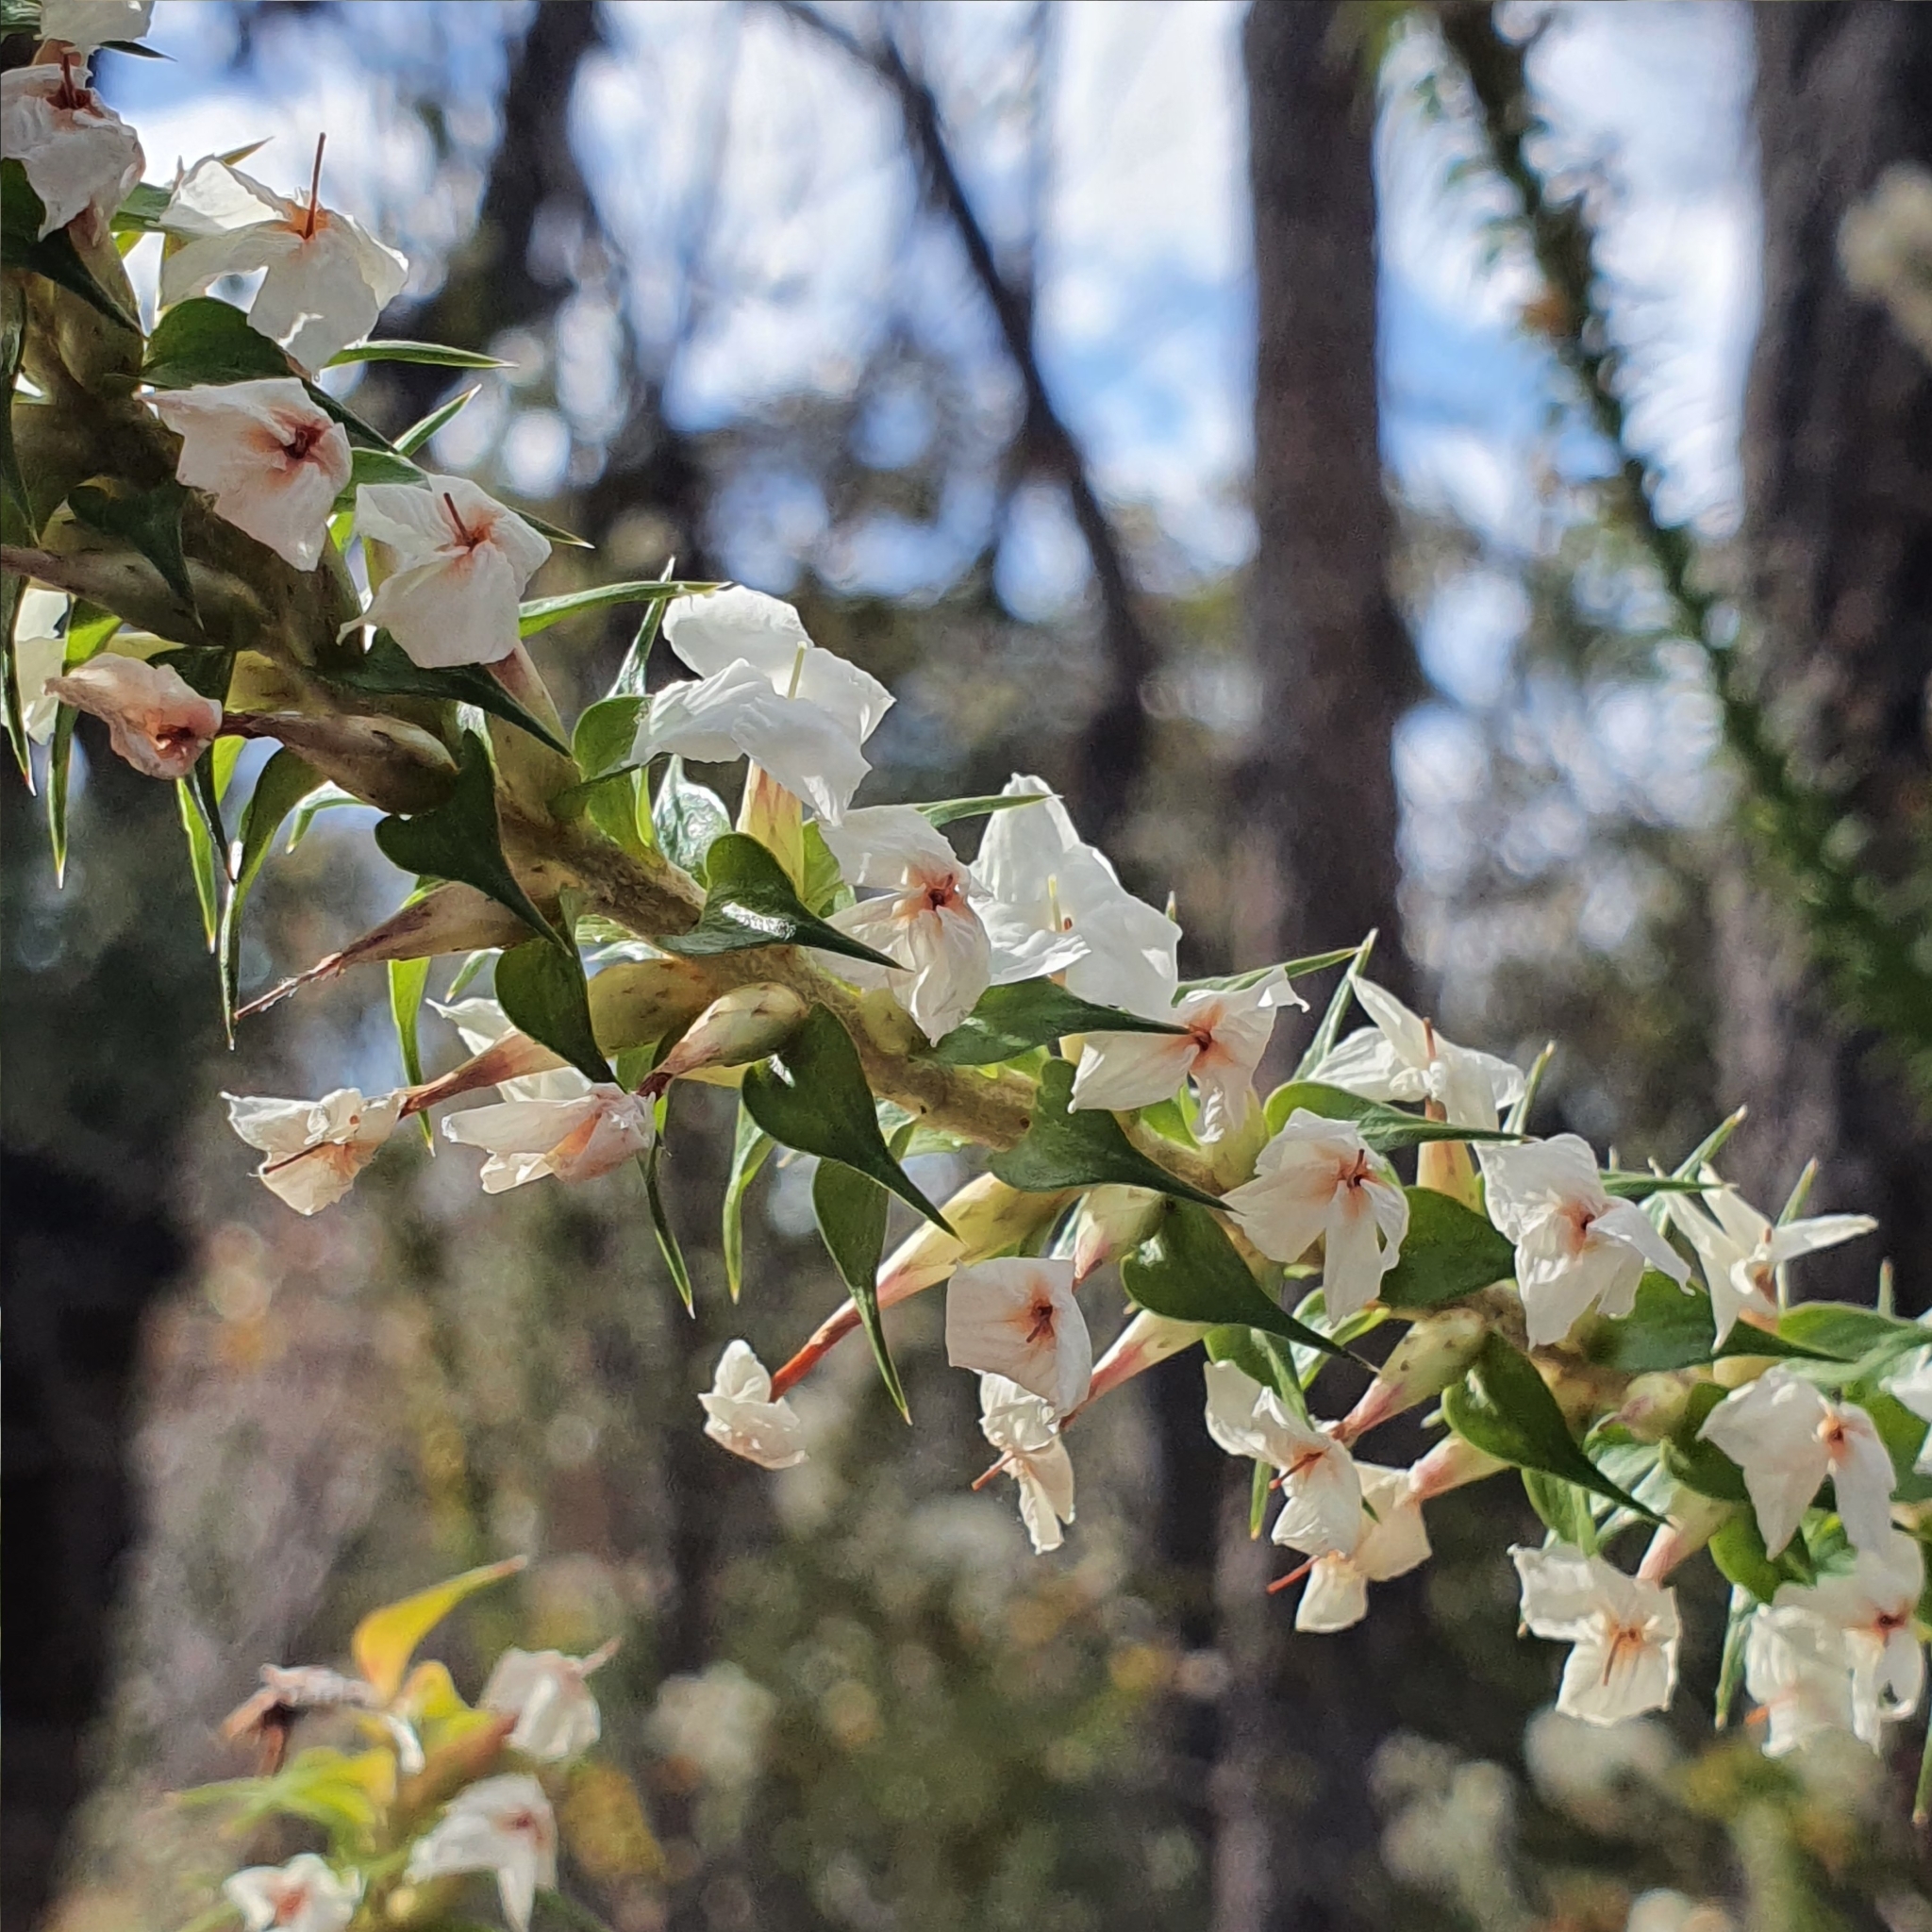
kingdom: Plantae
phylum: Tracheophyta
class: Magnoliopsida
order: Ericales
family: Ericaceae
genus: Woollsia
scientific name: Woollsia pungens
